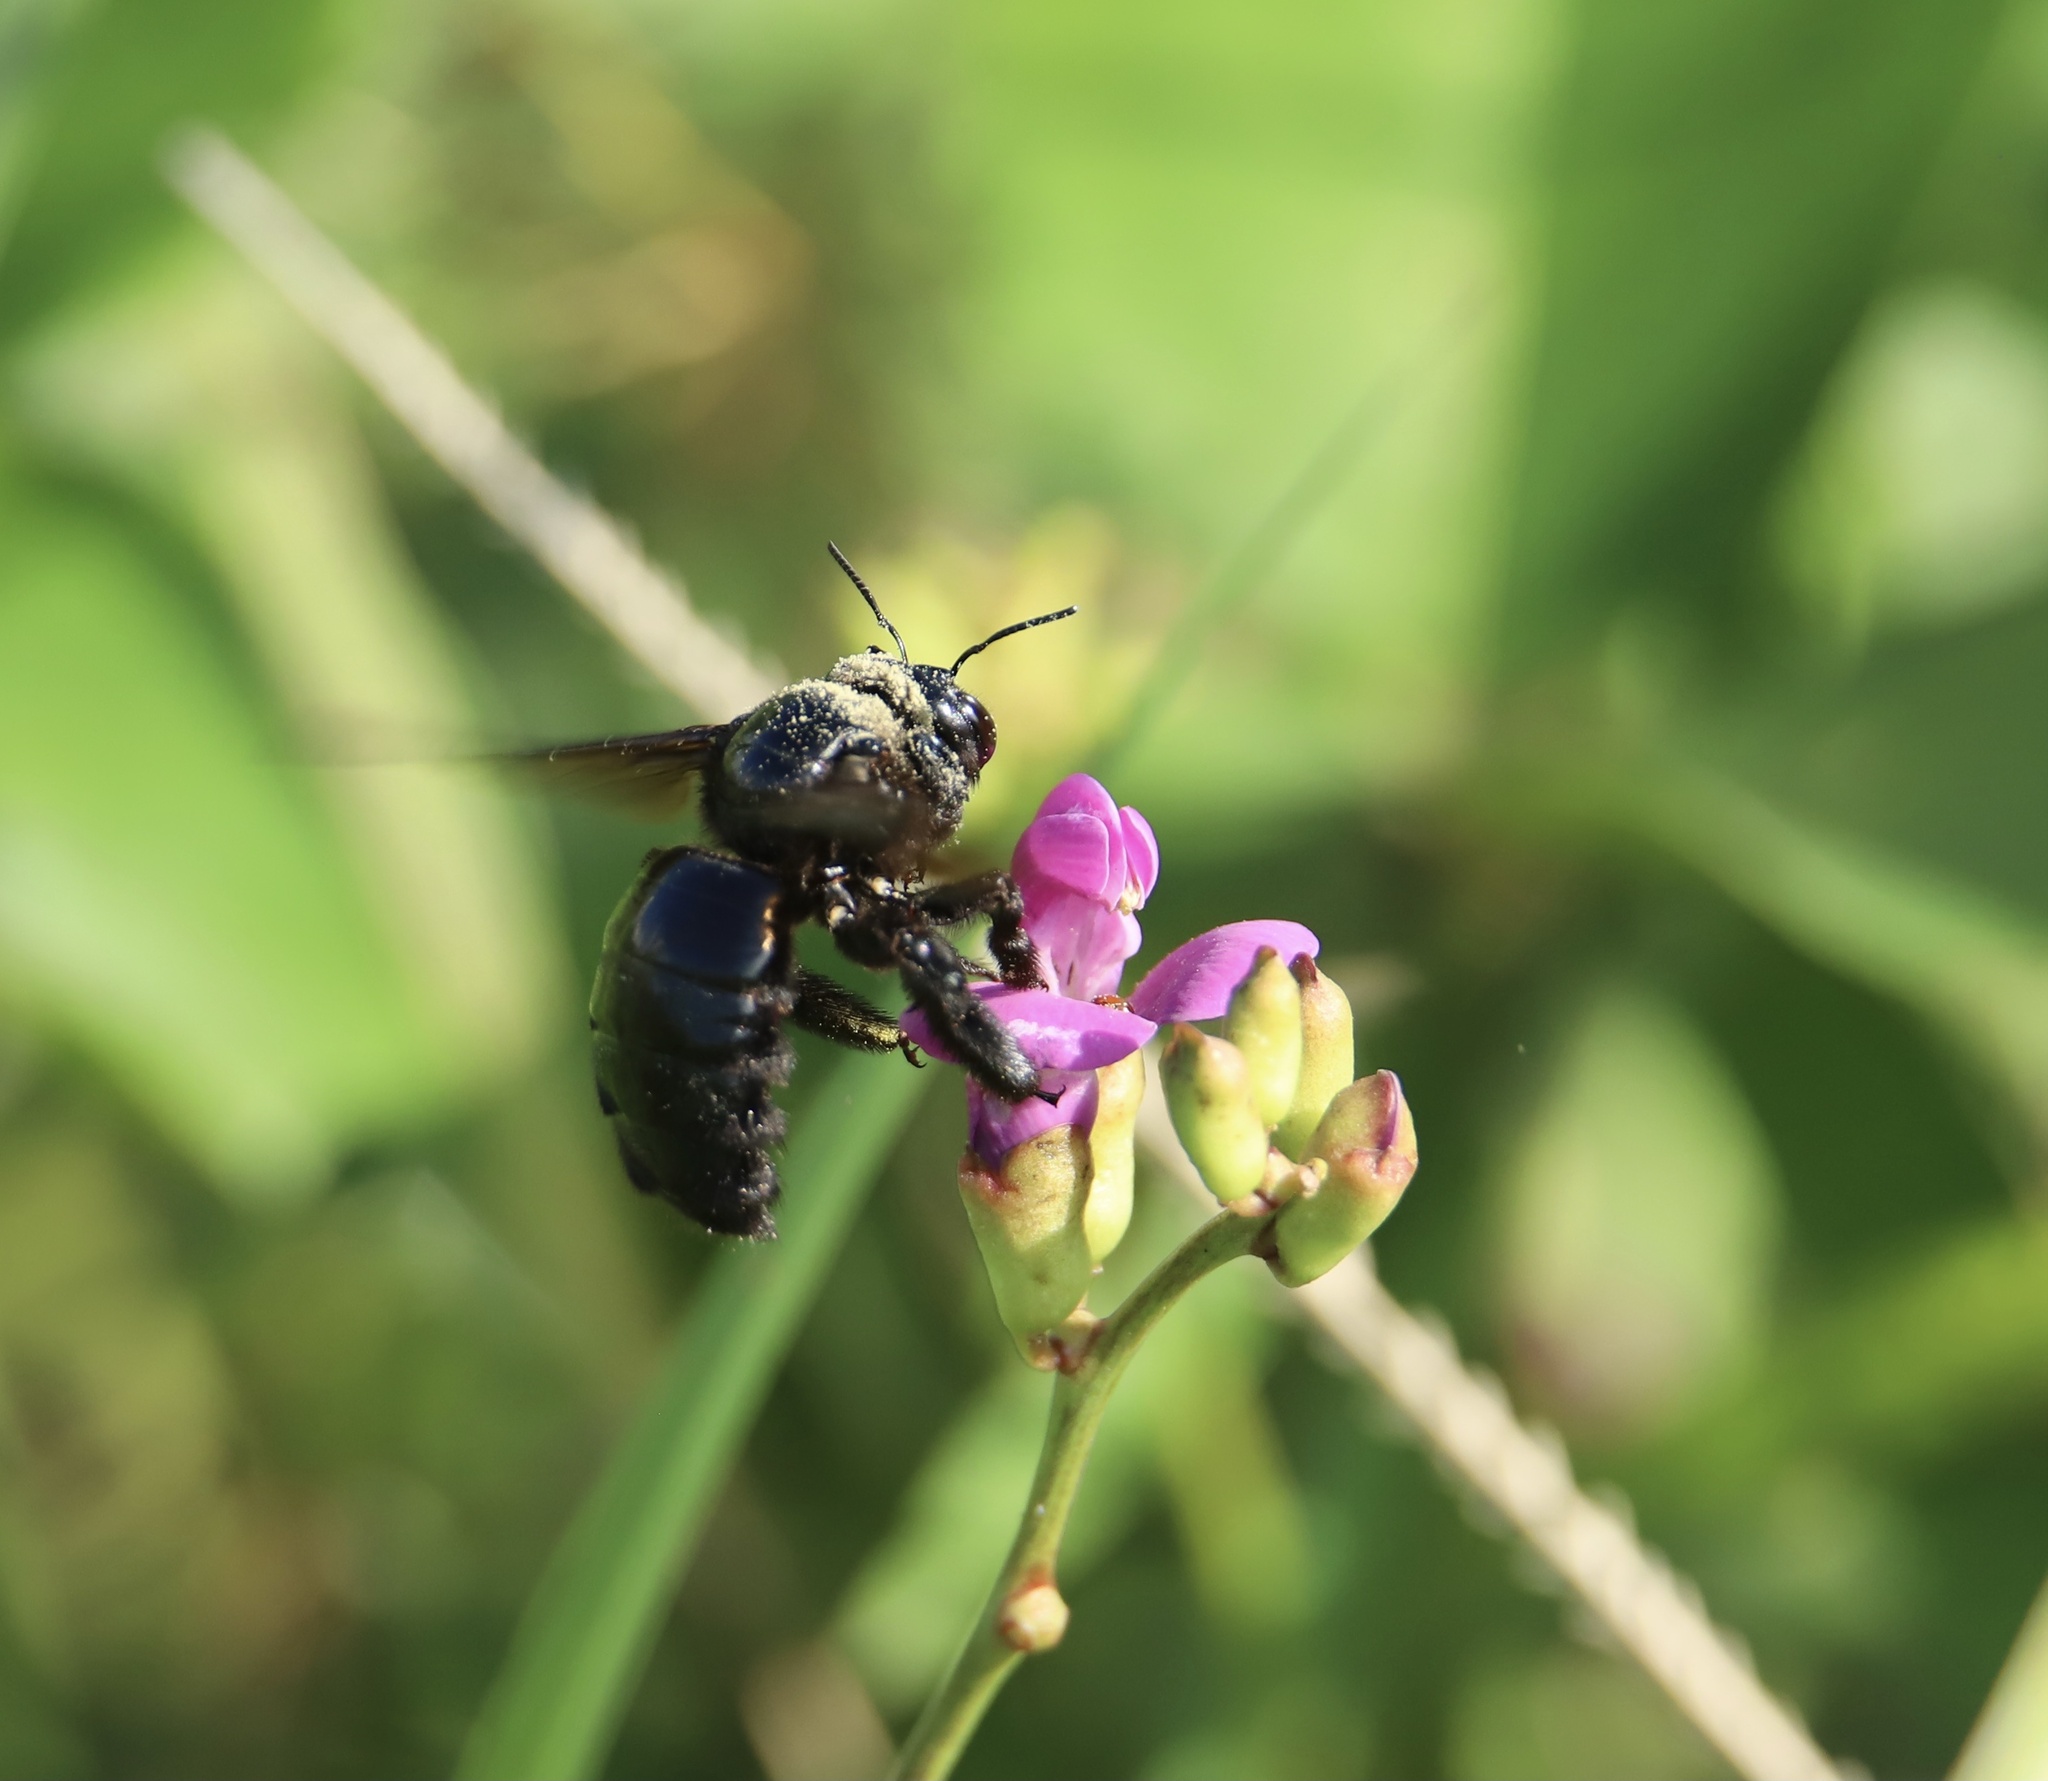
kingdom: Animalia
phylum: Arthropoda
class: Insecta
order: Hymenoptera
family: Apidae
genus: Xylocopa
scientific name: Xylocopa fimbriata
